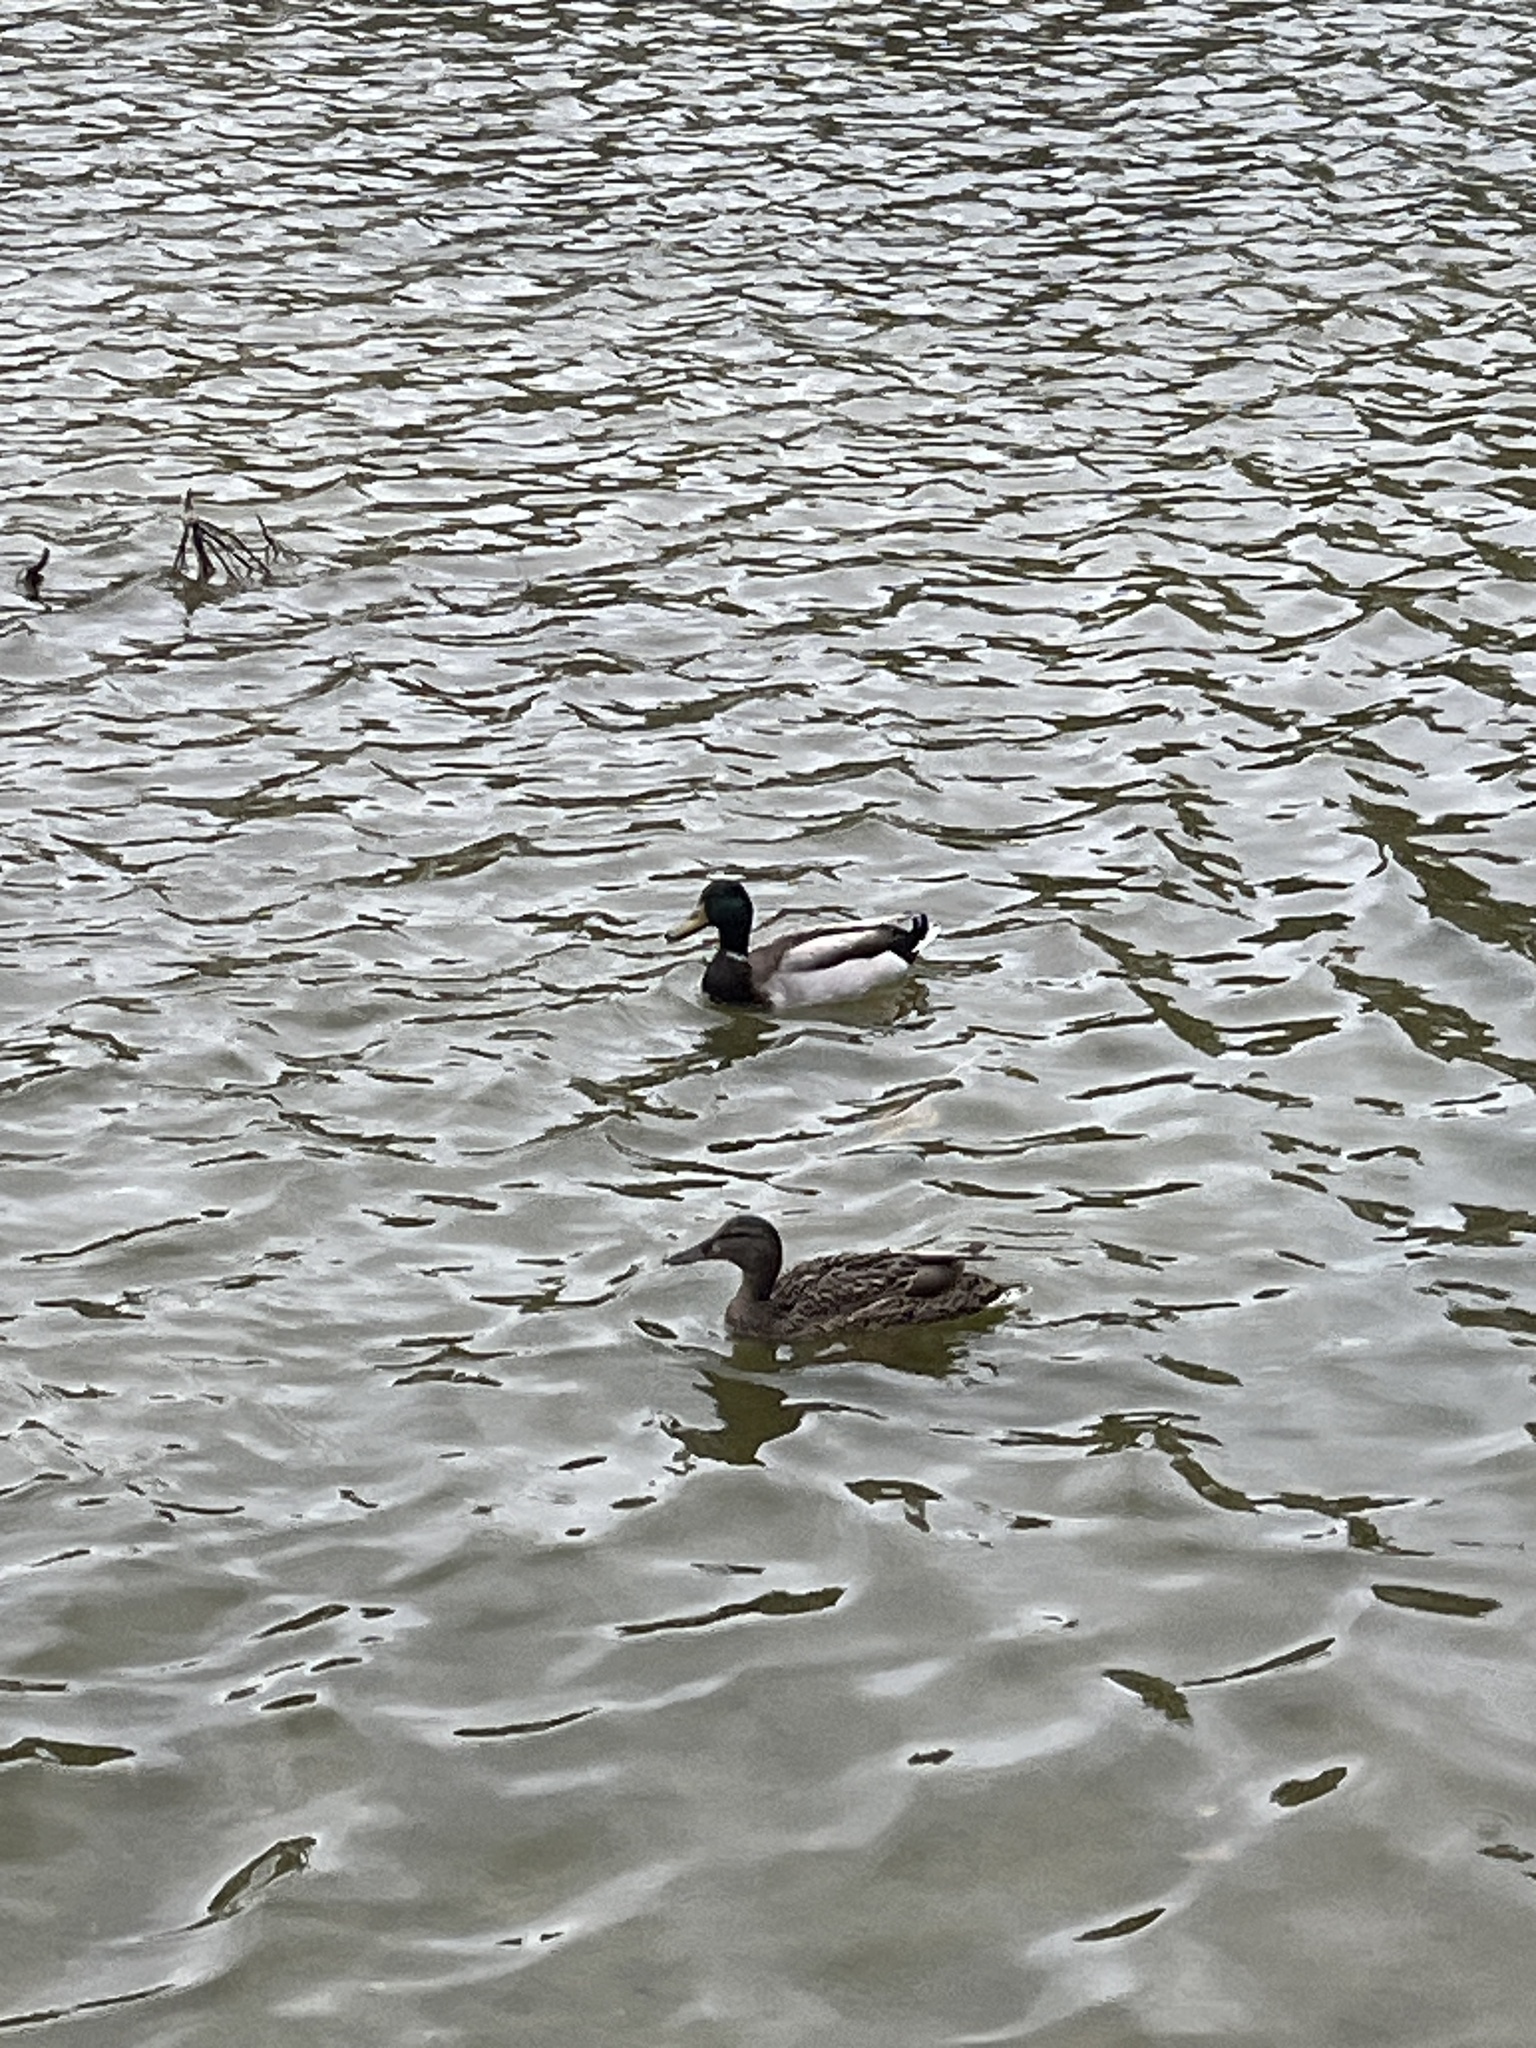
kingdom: Animalia
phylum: Chordata
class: Aves
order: Anseriformes
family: Anatidae
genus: Anas
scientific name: Anas platyrhynchos
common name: Mallard
